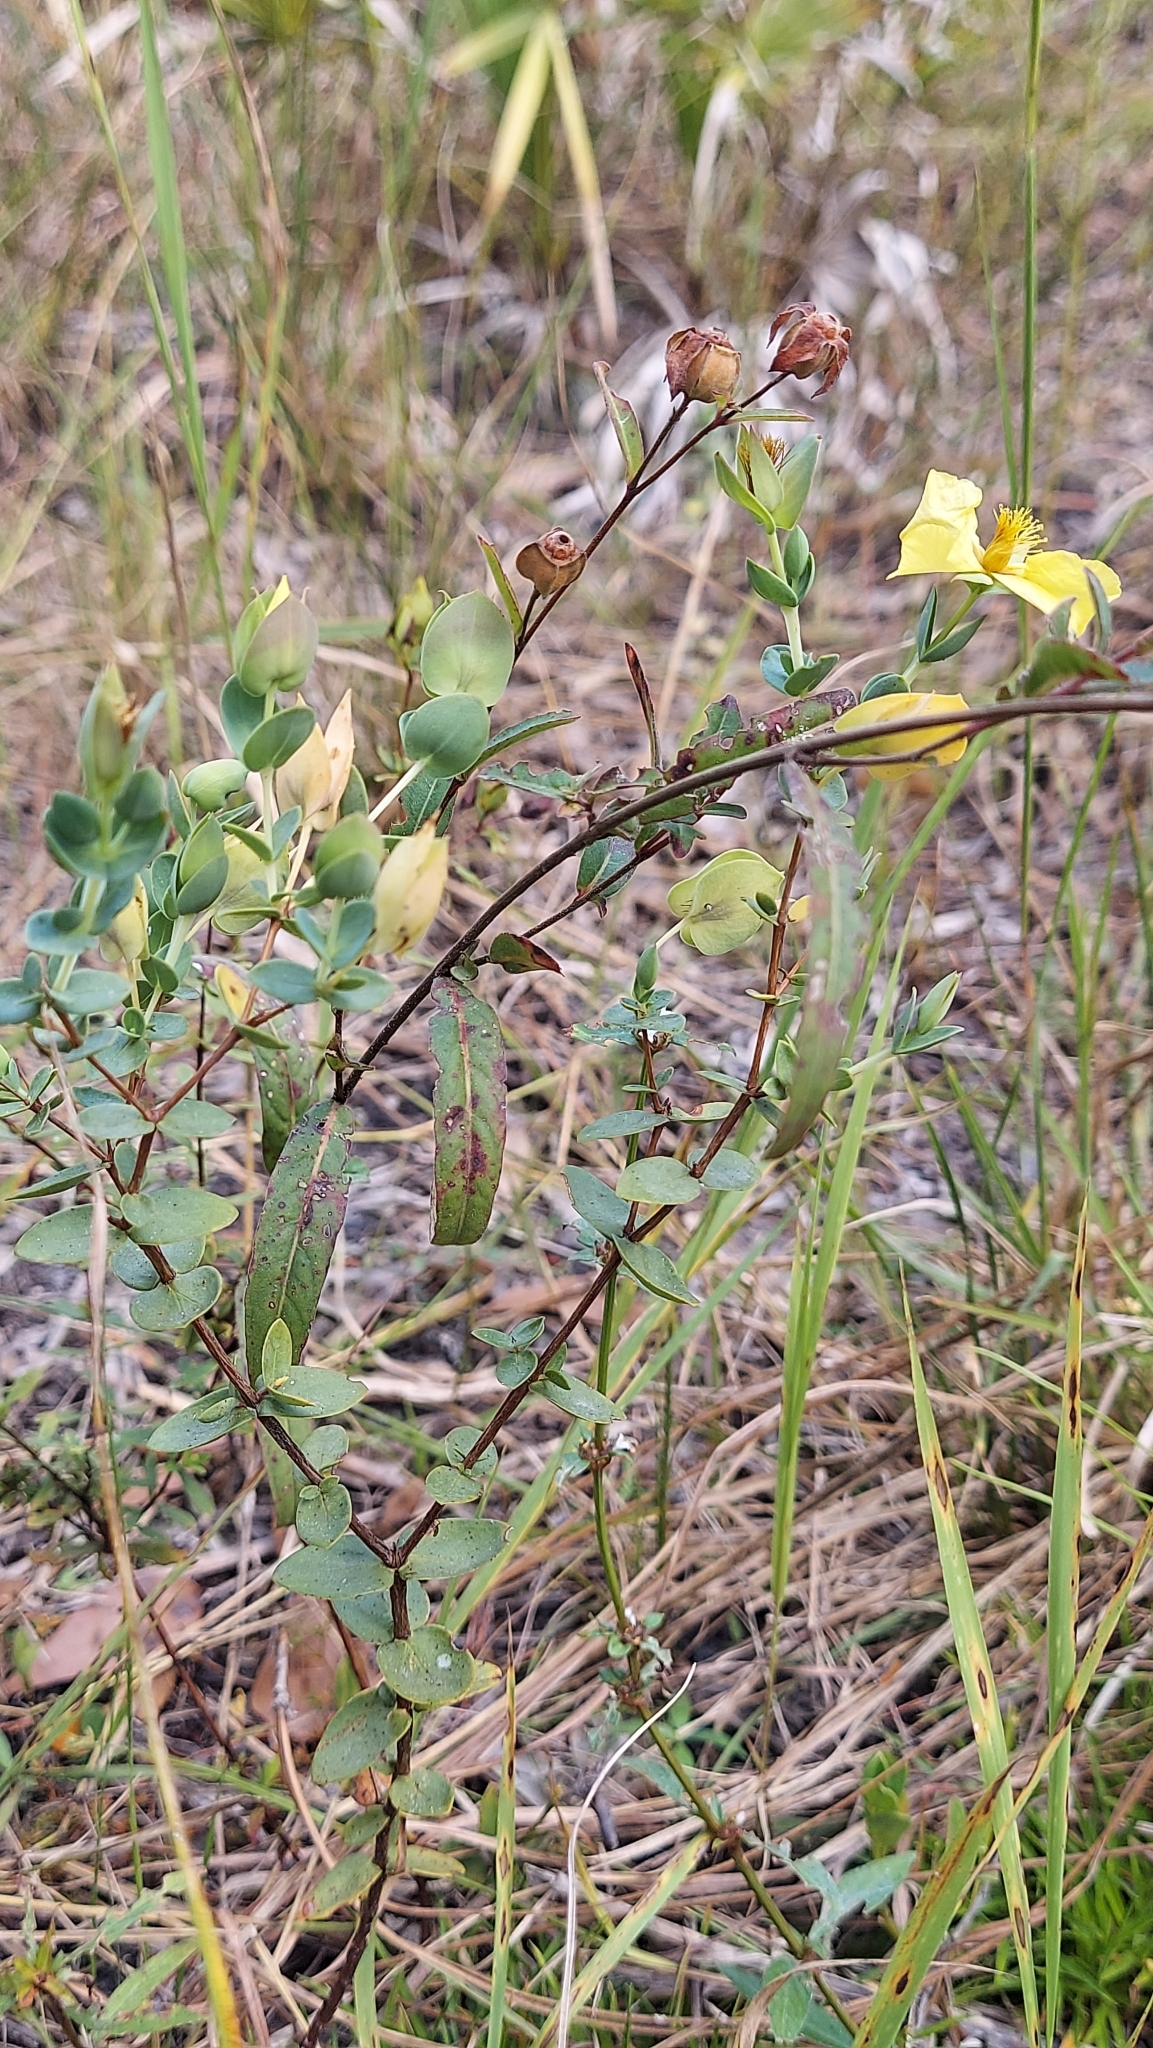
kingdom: Plantae
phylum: Tracheophyta
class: Magnoliopsida
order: Malpighiales
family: Hypericaceae
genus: Hypericum
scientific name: Hypericum tetrapetalum
